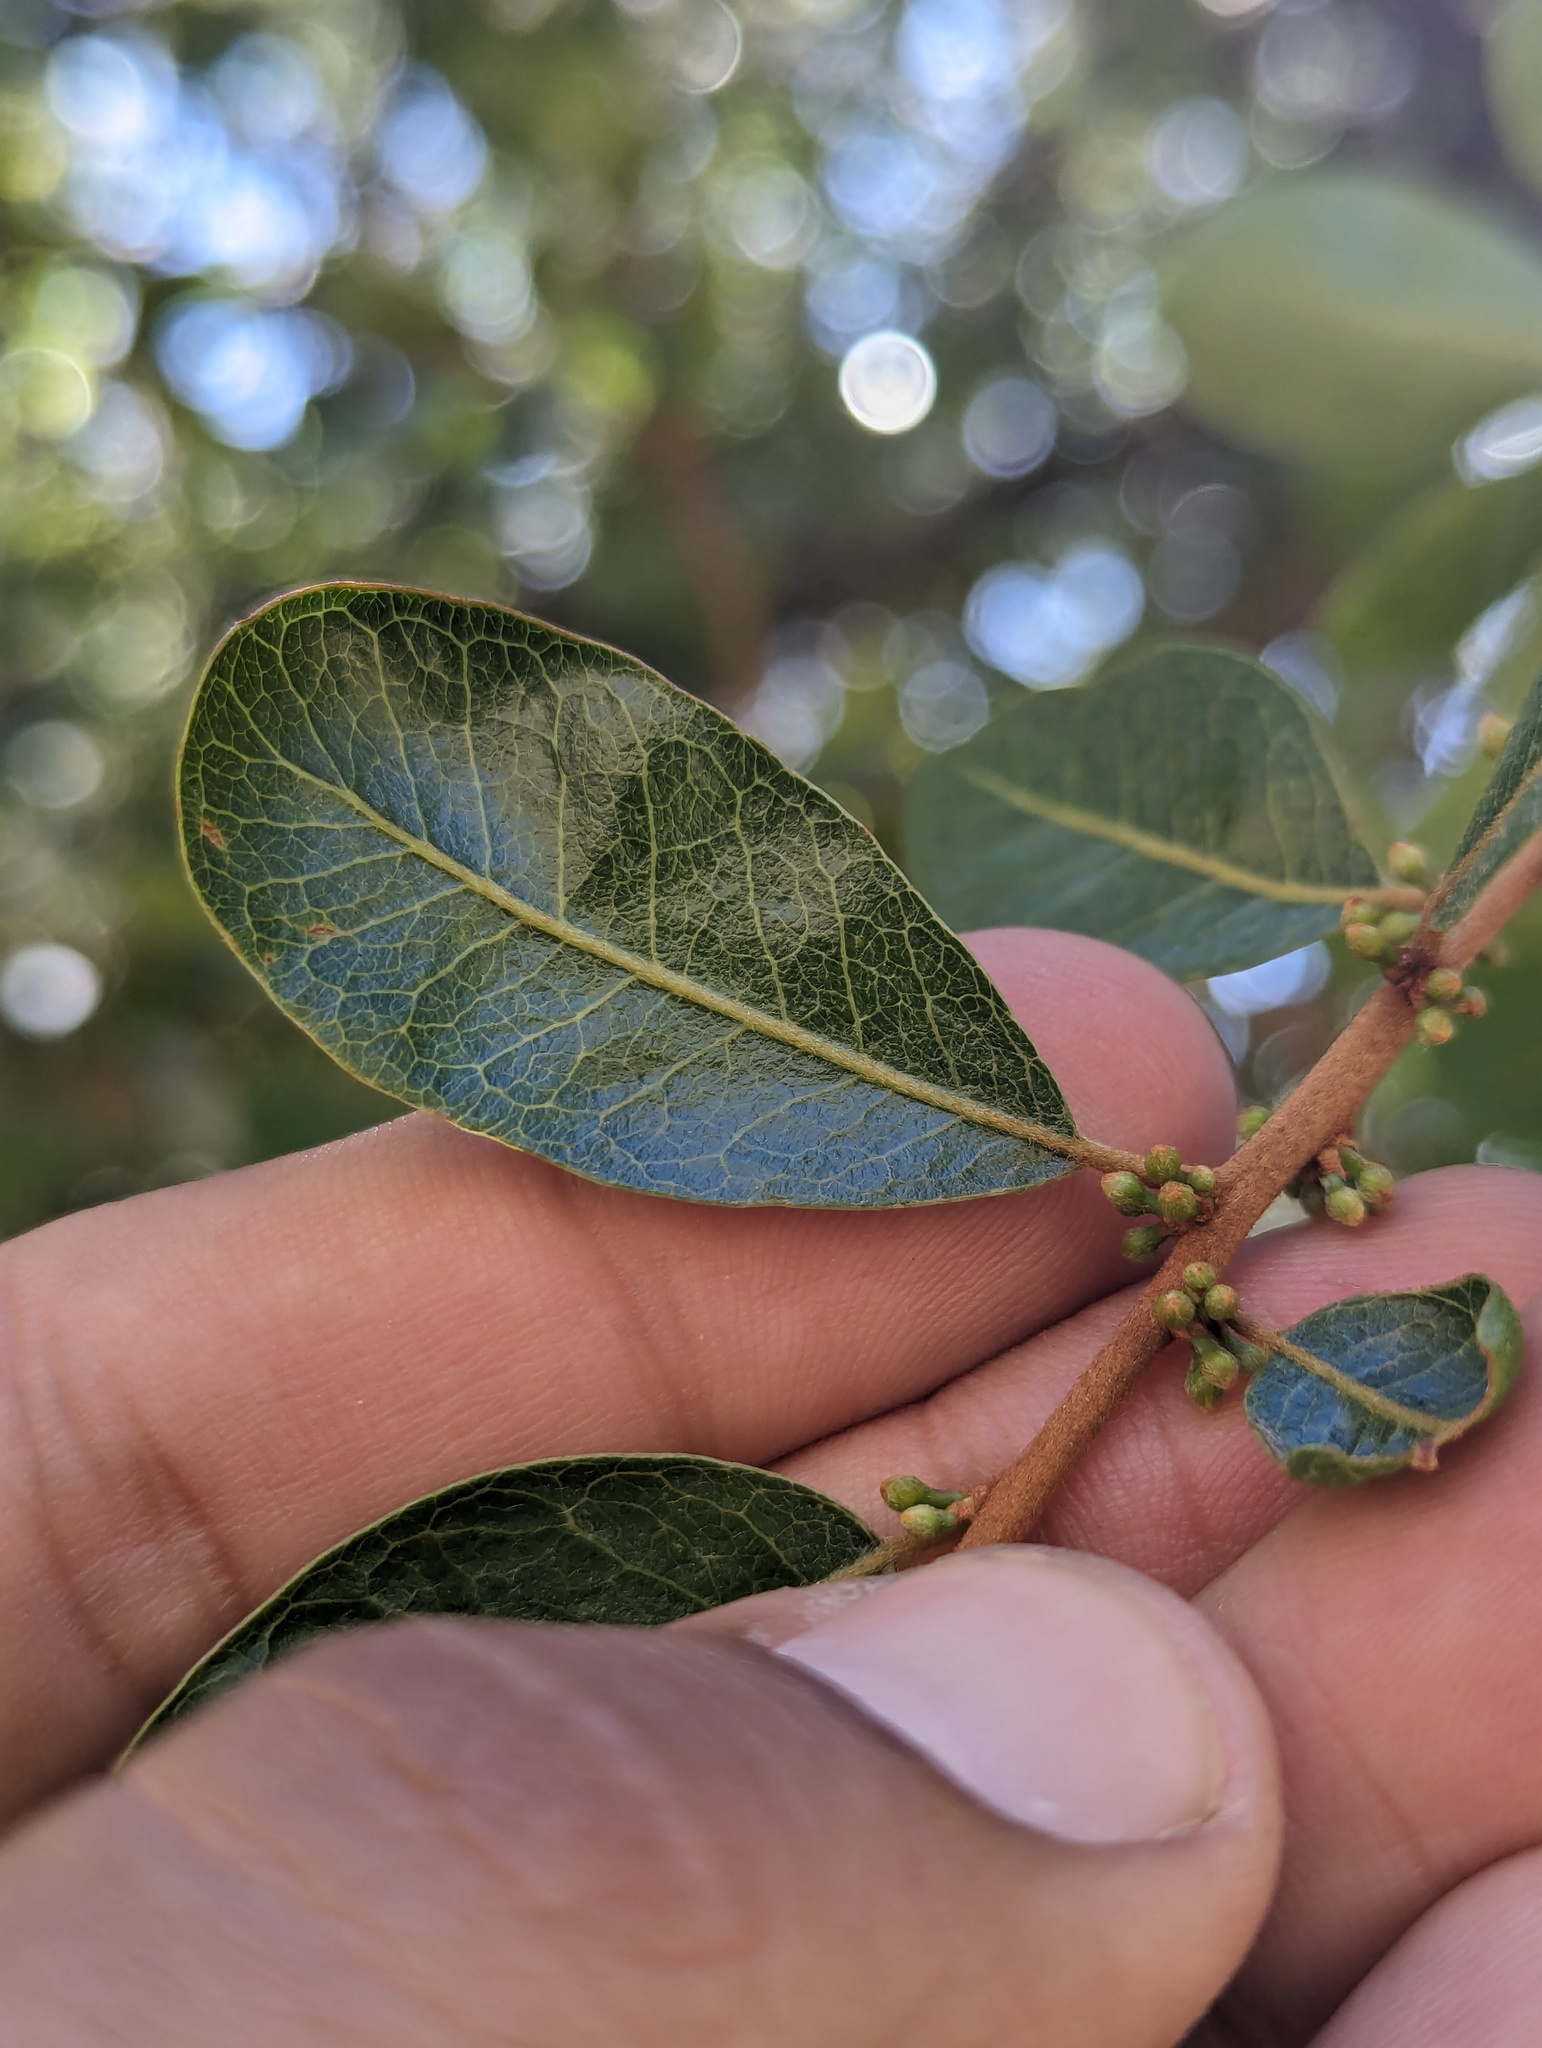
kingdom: Plantae
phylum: Tracheophyta
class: Magnoliopsida
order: Ericales
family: Sapotaceae
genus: Sideroxylon
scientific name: Sideroxylon peninsulare
